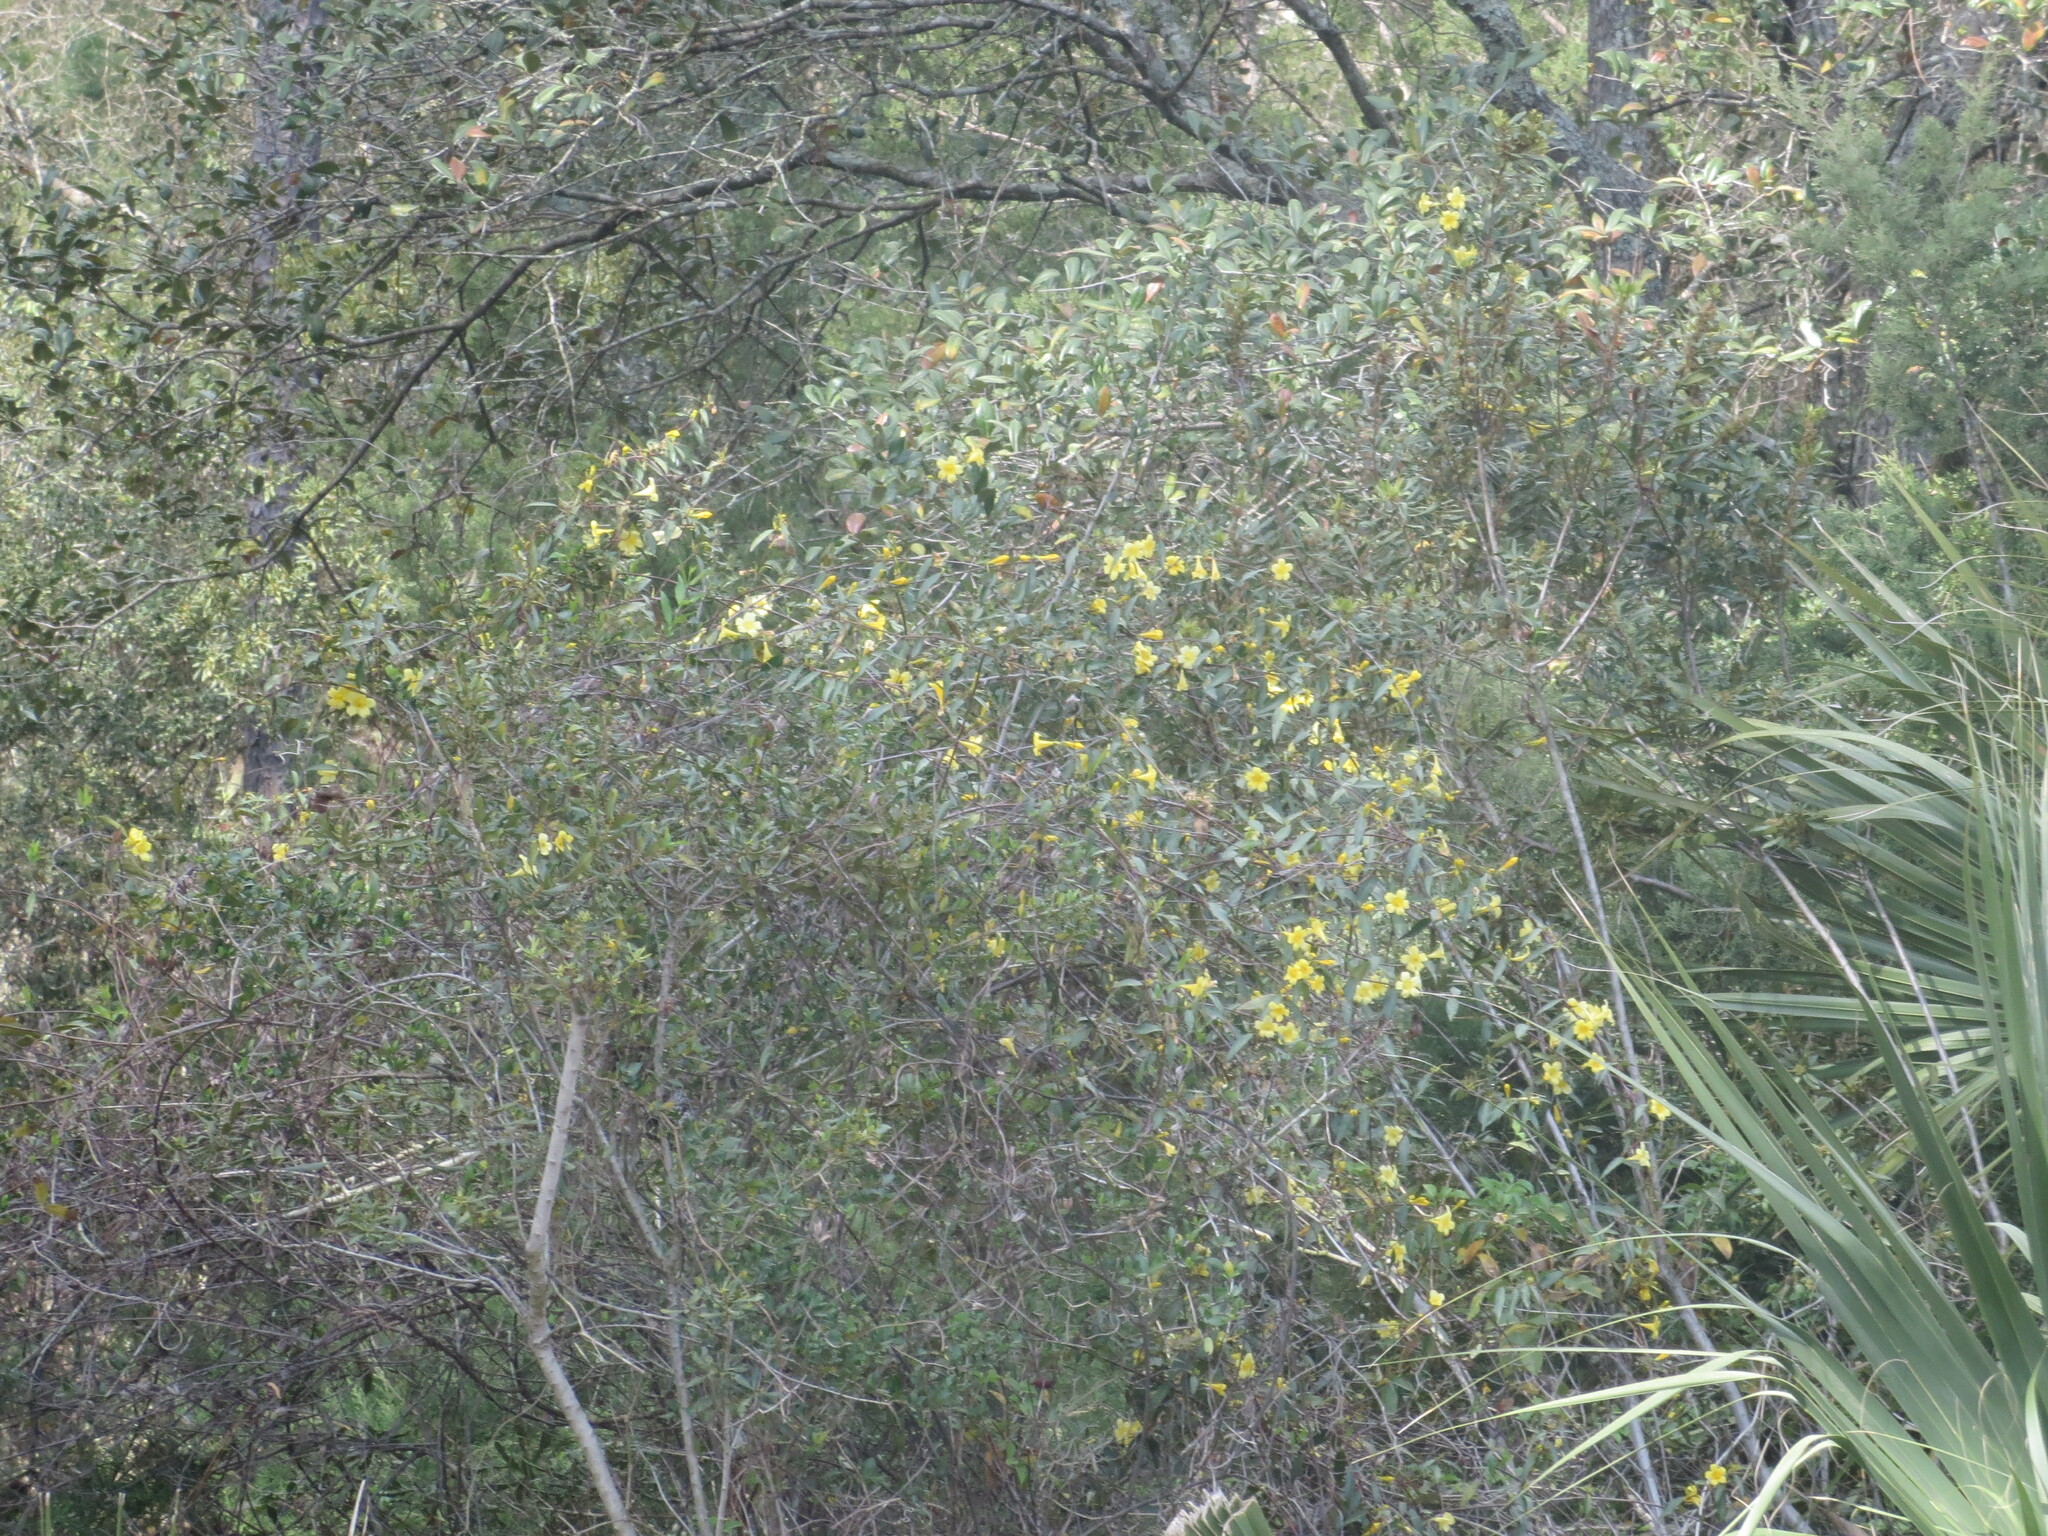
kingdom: Plantae
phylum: Tracheophyta
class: Magnoliopsida
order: Gentianales
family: Gelsemiaceae
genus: Gelsemium
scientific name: Gelsemium sempervirens
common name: Carolina-jasmine
